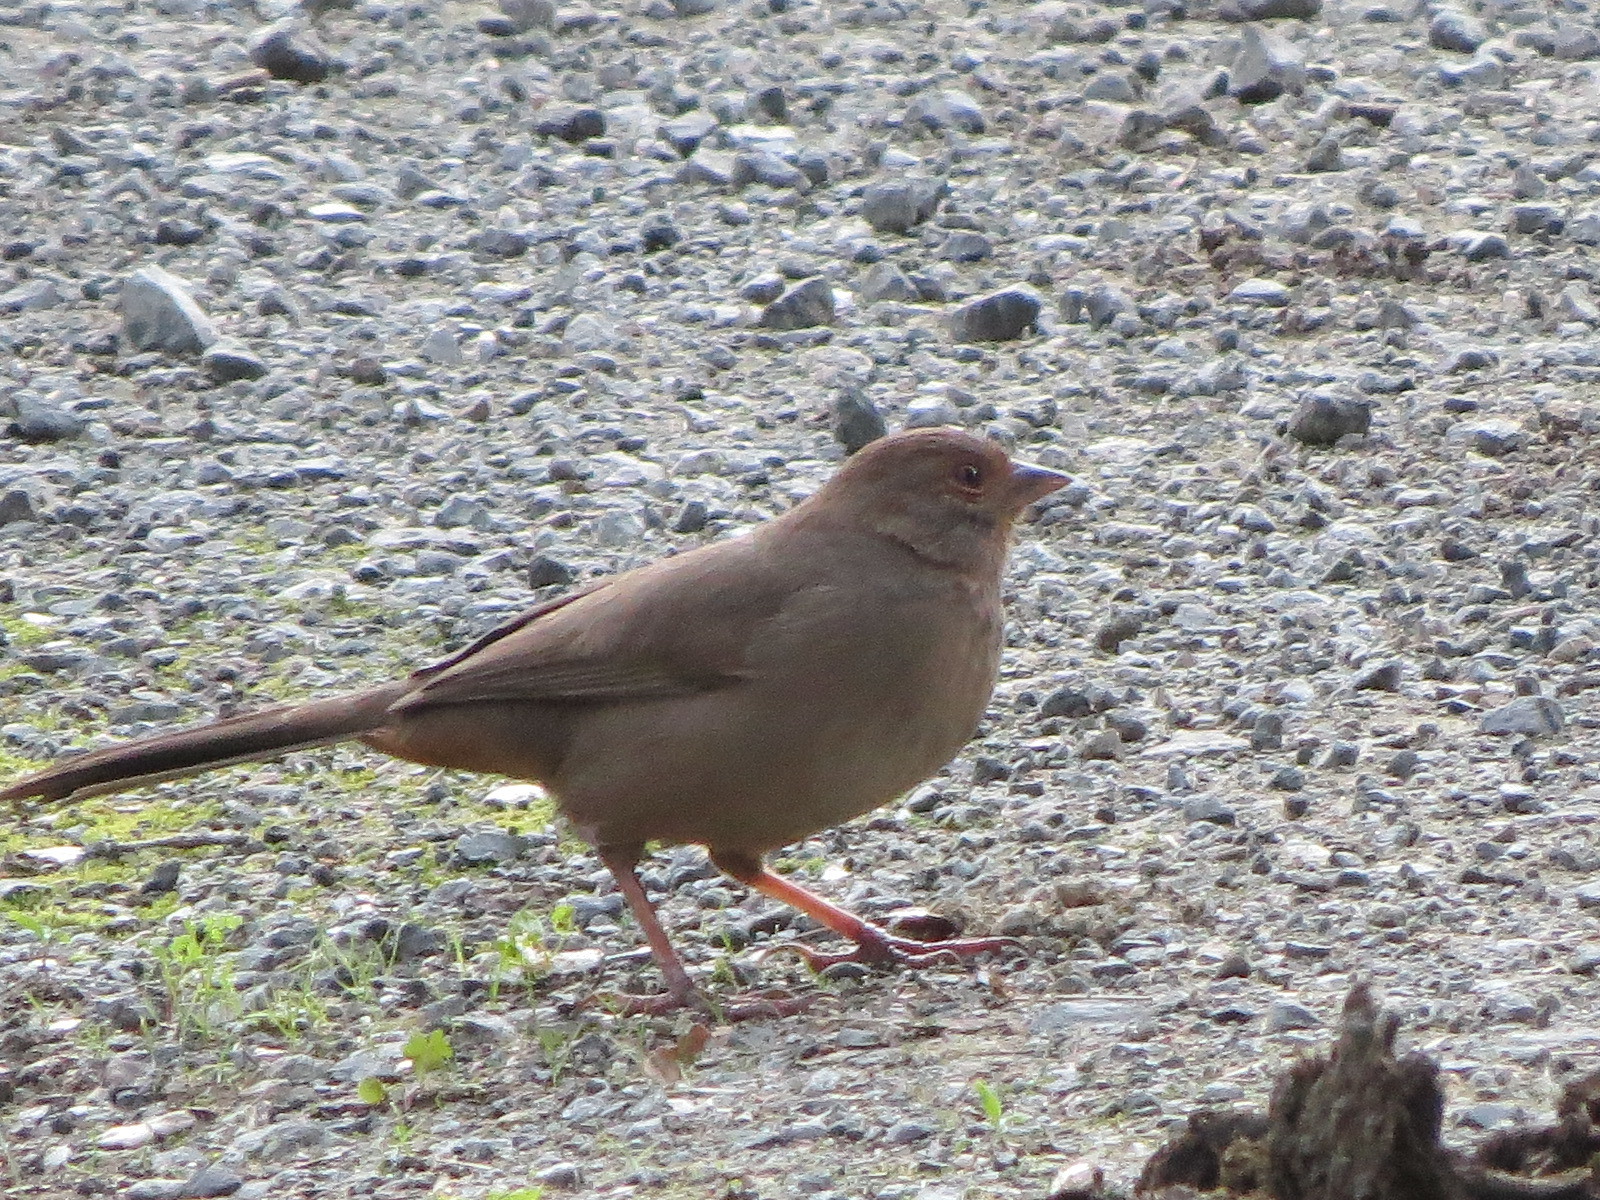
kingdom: Animalia
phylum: Chordata
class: Aves
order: Passeriformes
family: Passerellidae
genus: Melozone
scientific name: Melozone crissalis
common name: California towhee
